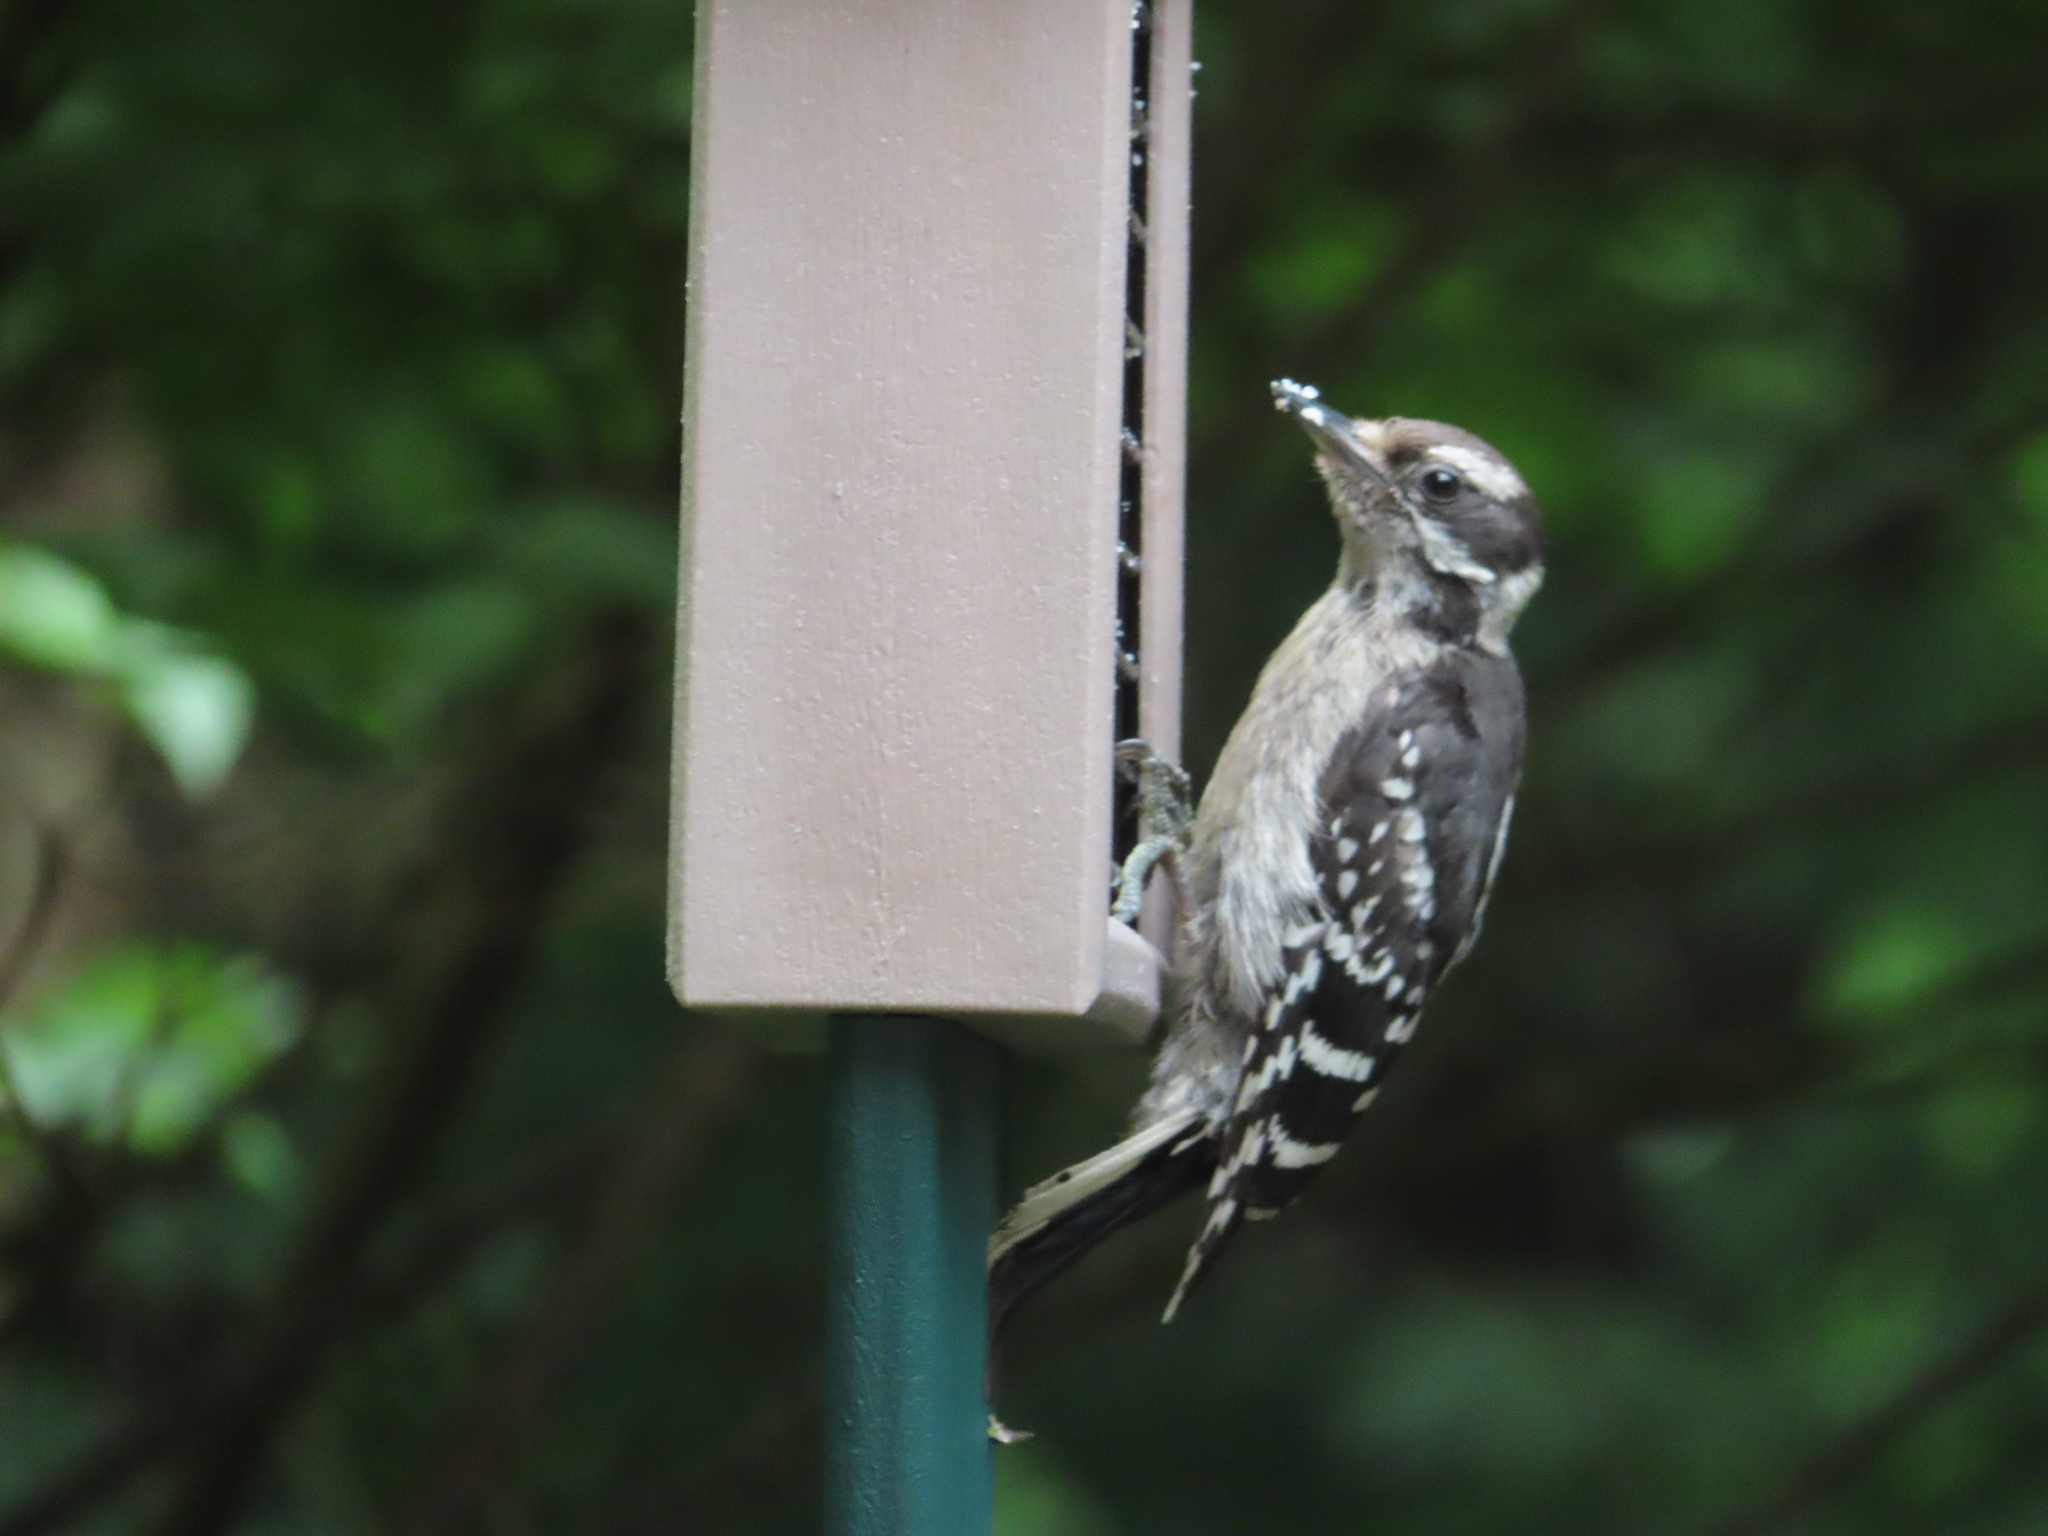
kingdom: Animalia
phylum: Chordata
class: Aves
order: Piciformes
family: Picidae
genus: Dryobates
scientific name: Dryobates pubescens
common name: Downy woodpecker
